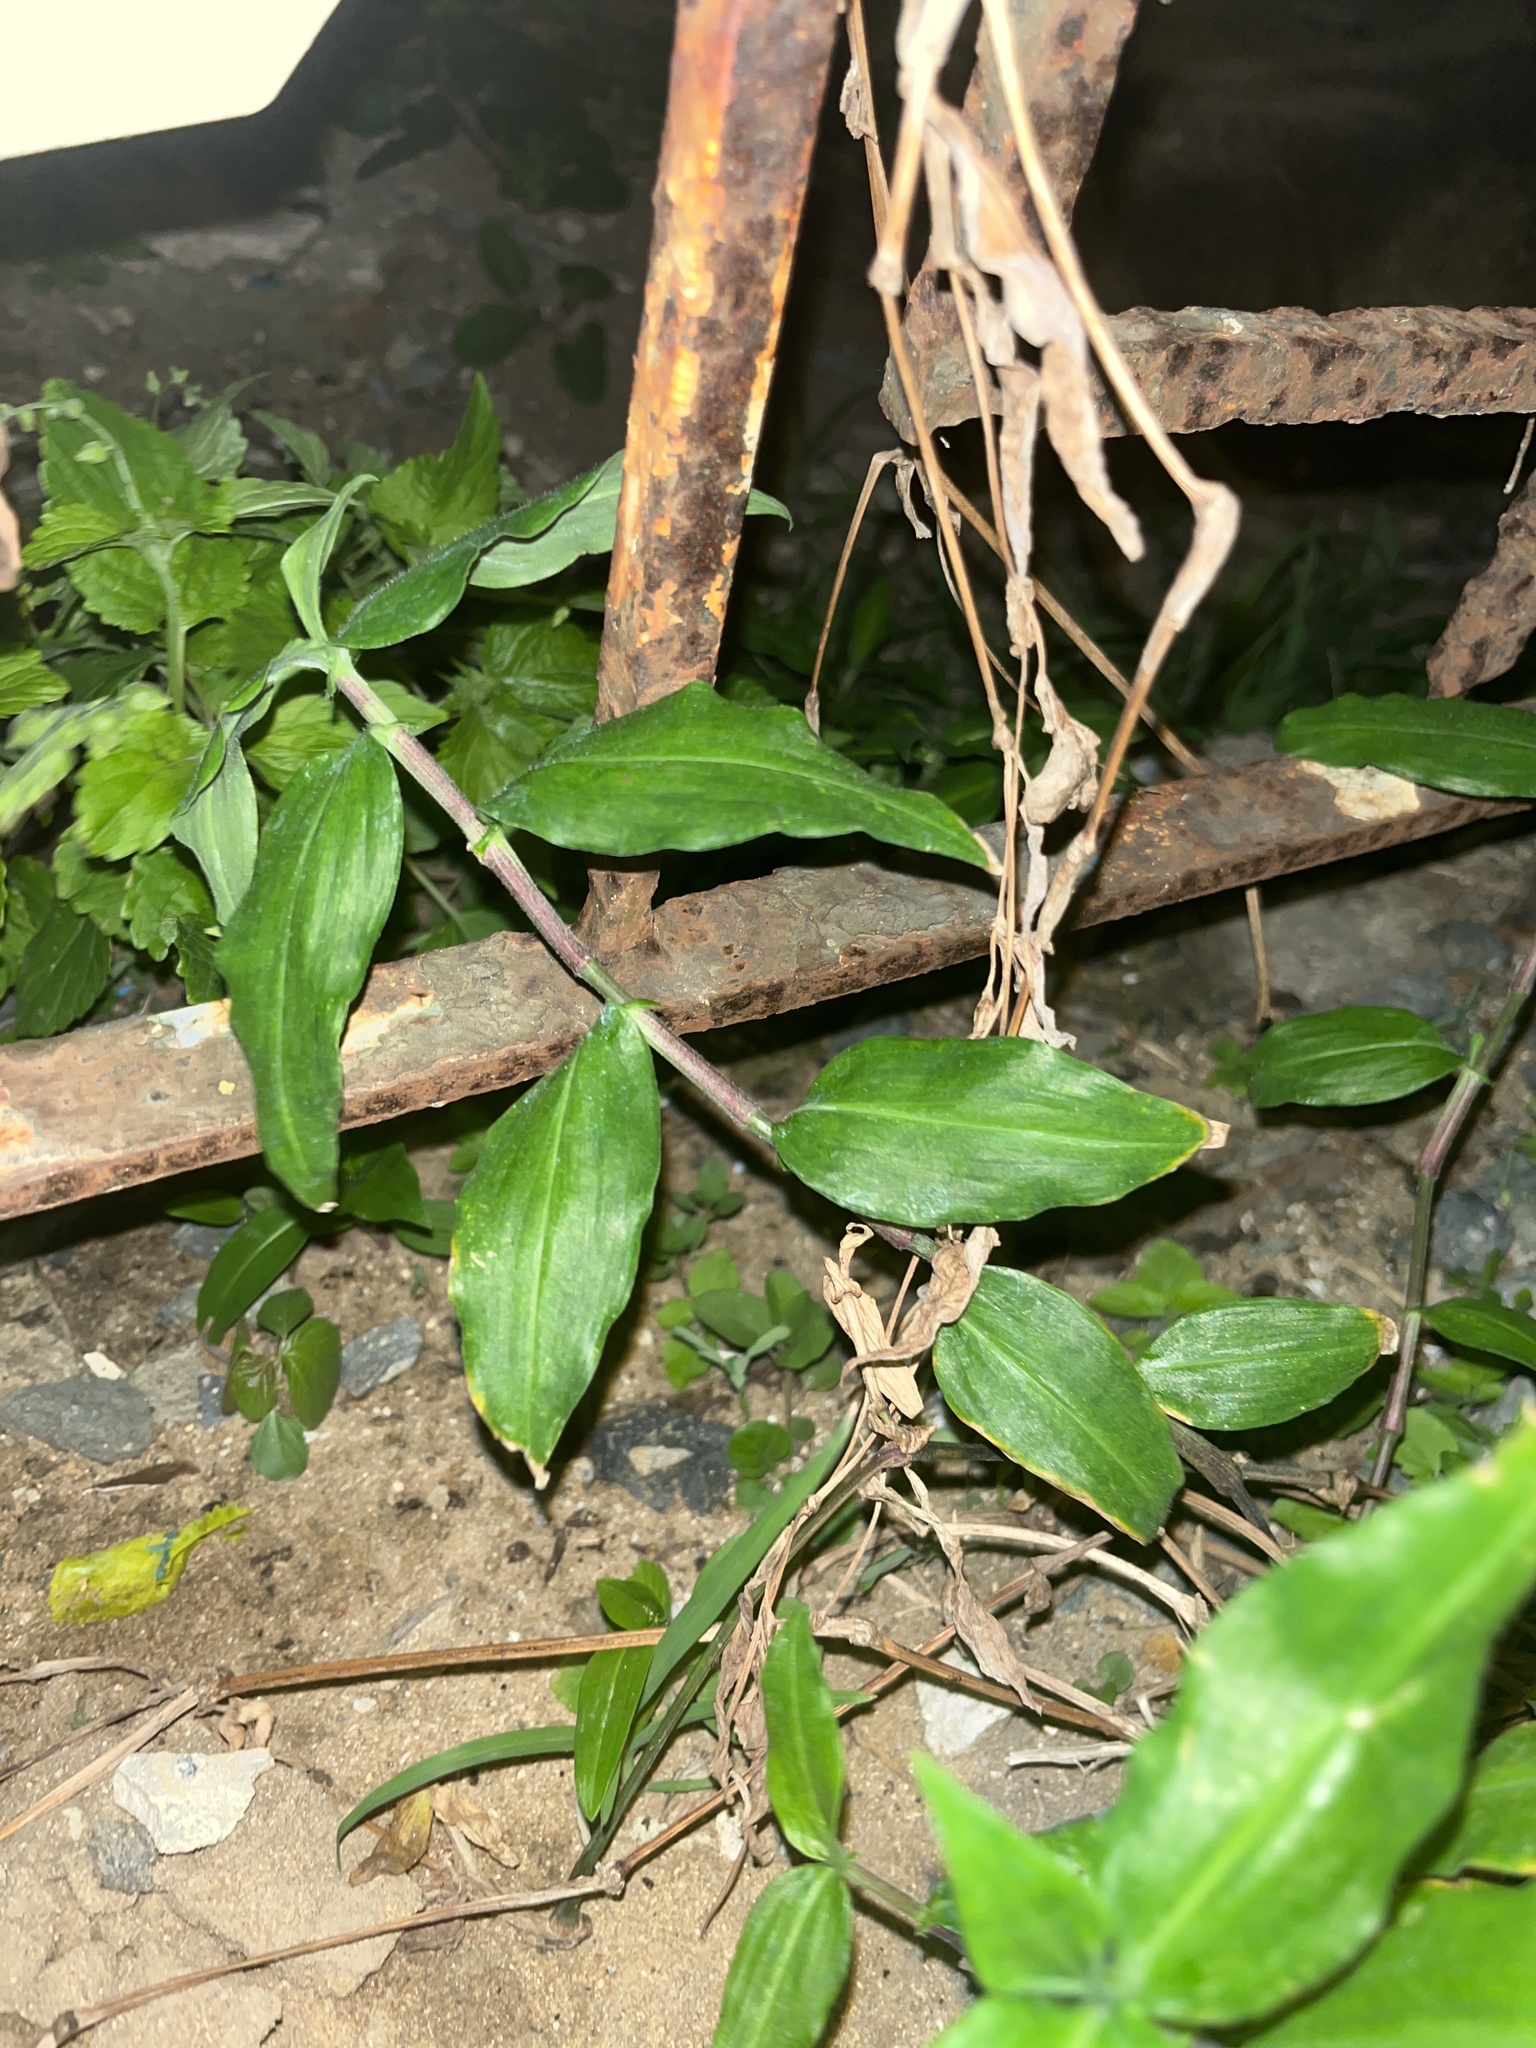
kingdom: Plantae
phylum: Tracheophyta
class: Liliopsida
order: Commelinales
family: Commelinaceae
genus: Commelina
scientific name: Commelina erecta
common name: Blousel blommetjie
